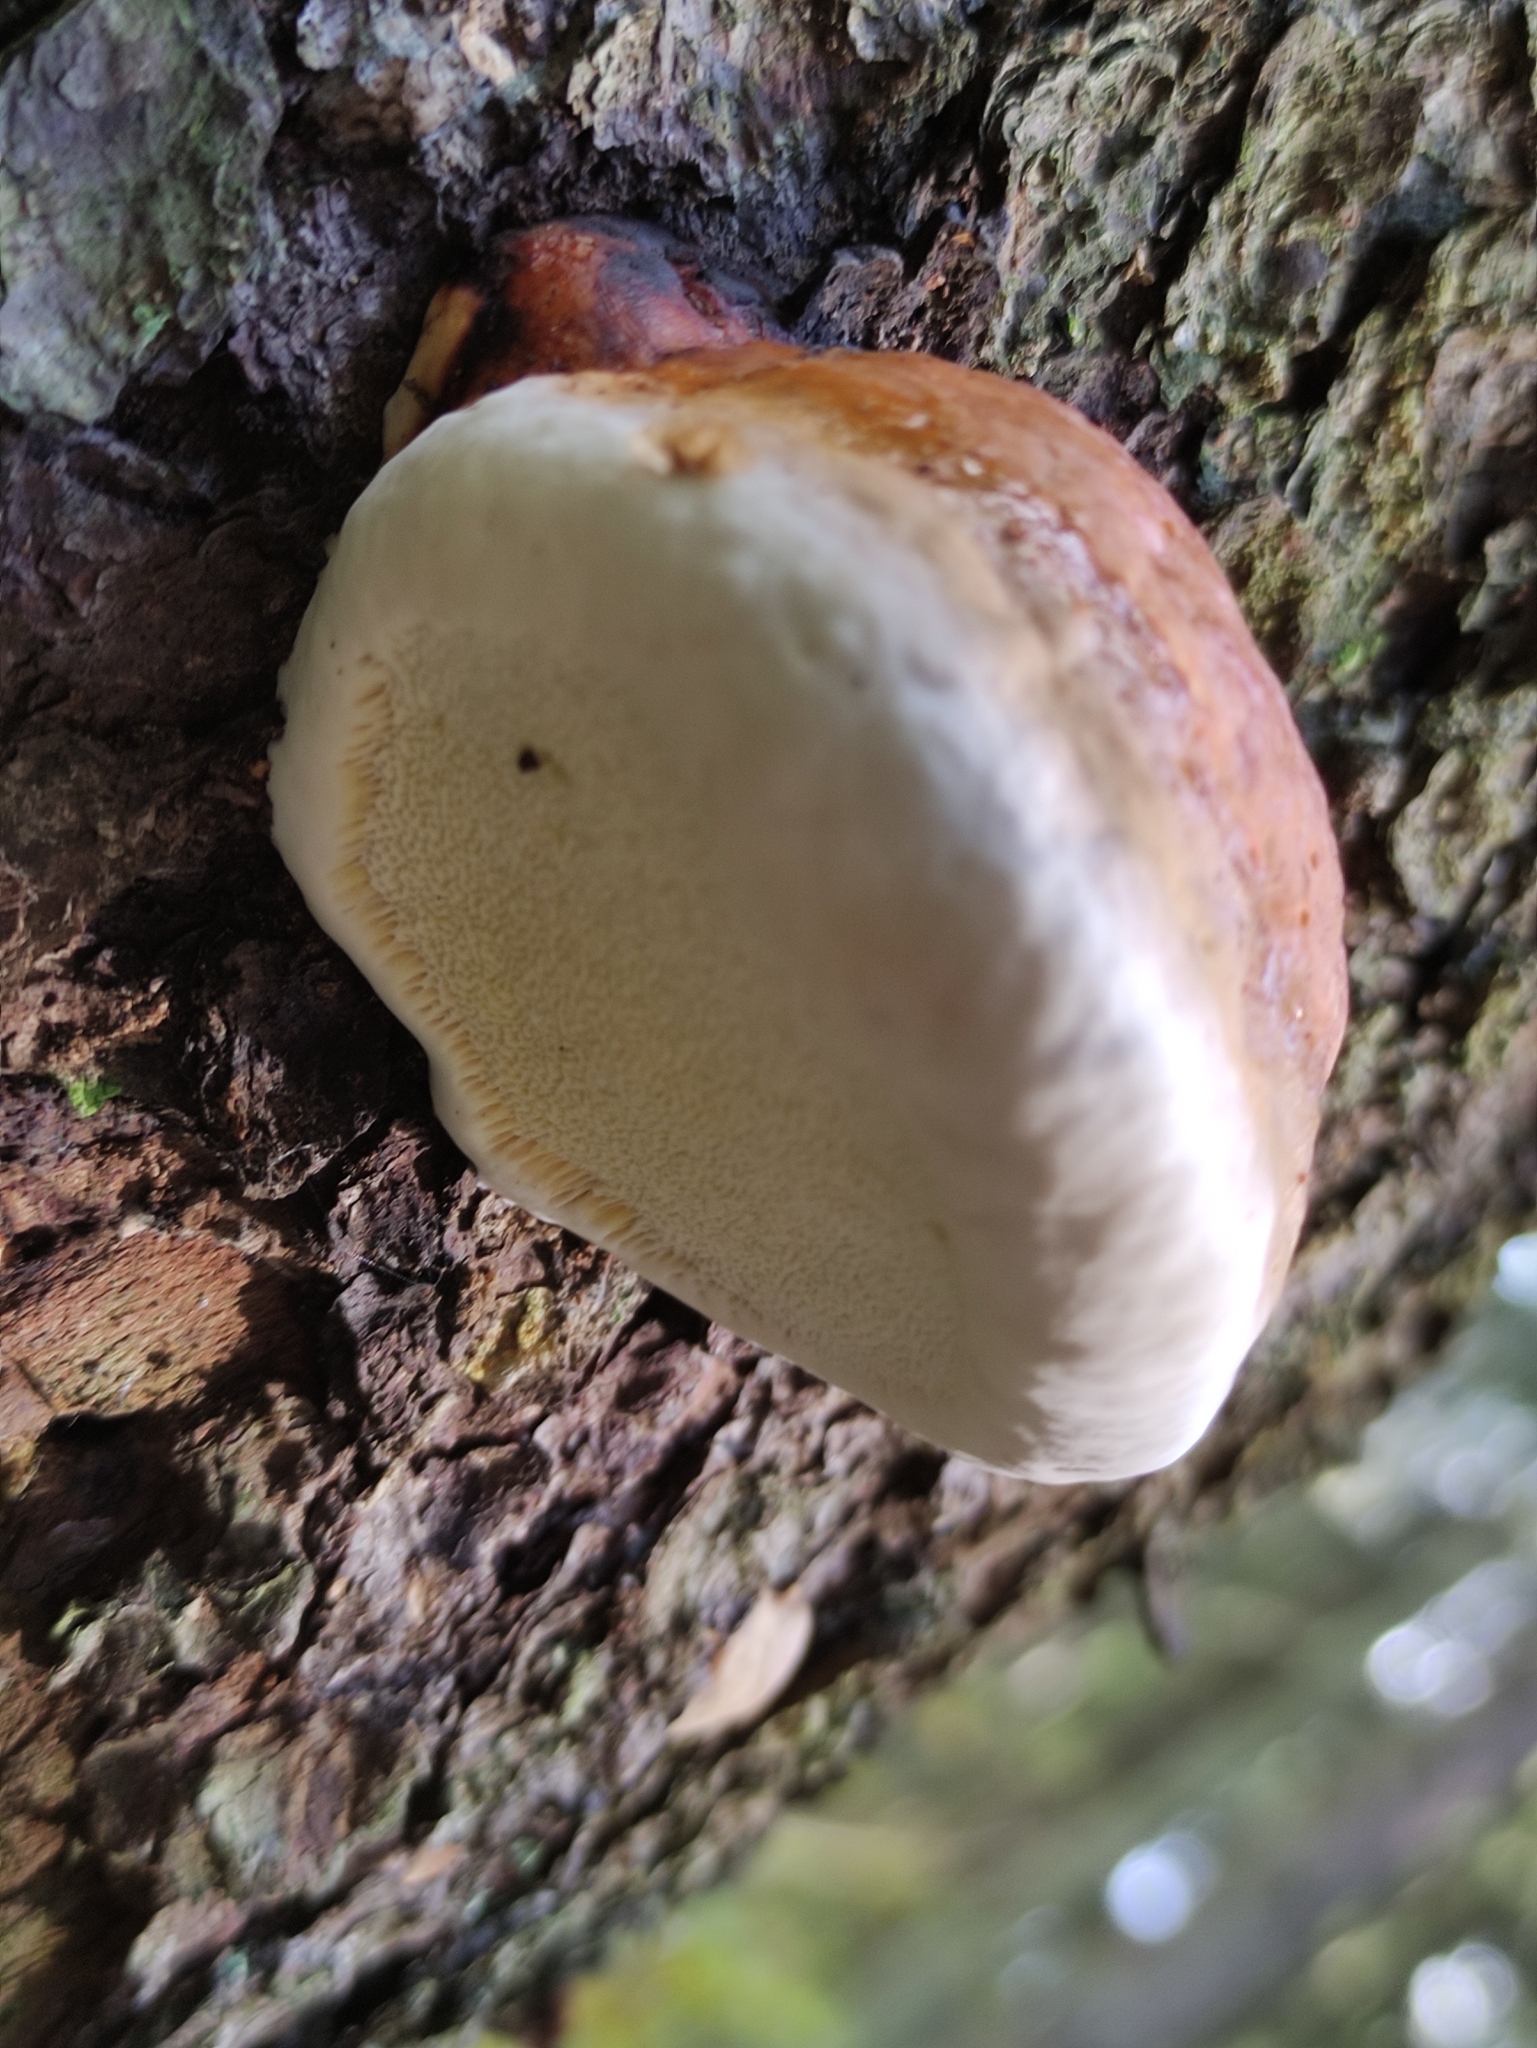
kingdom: Fungi
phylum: Basidiomycota
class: Agaricomycetes
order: Polyporales
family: Fomitopsidaceae
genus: Fomitopsis
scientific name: Fomitopsis pinicola
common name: Red-belted bracket
